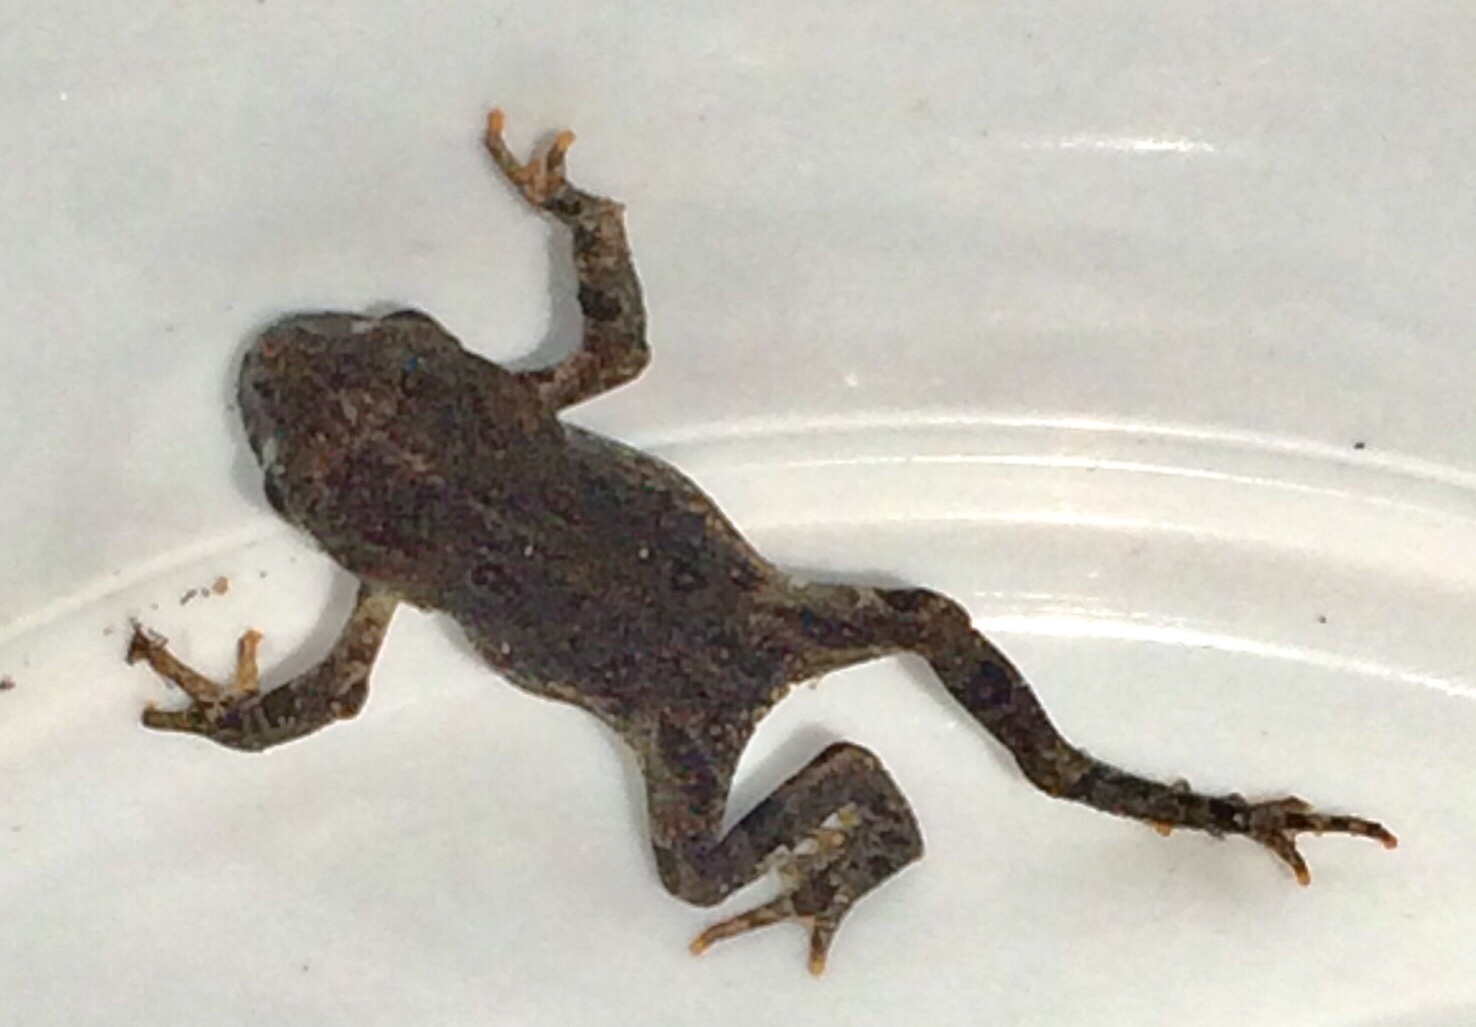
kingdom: Animalia
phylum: Chordata
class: Amphibia
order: Anura
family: Bufonidae
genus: Anaxyrus
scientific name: Anaxyrus boreas
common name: Western toad
